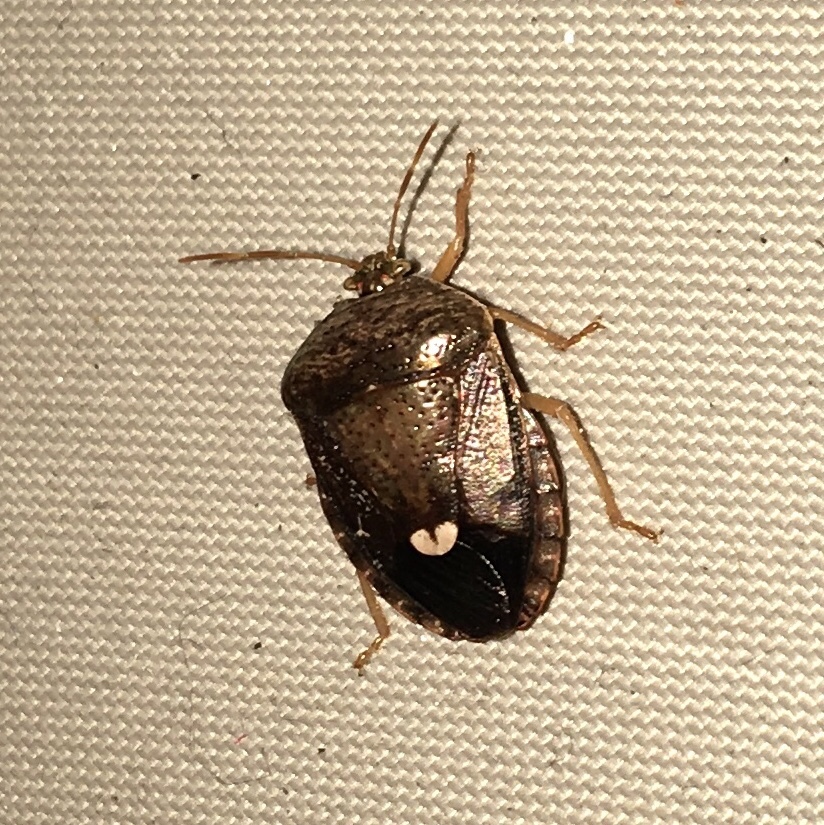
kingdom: Animalia
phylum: Arthropoda
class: Insecta
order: Hemiptera
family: Pentatomidae
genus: Edessa
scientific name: Edessa bifida
